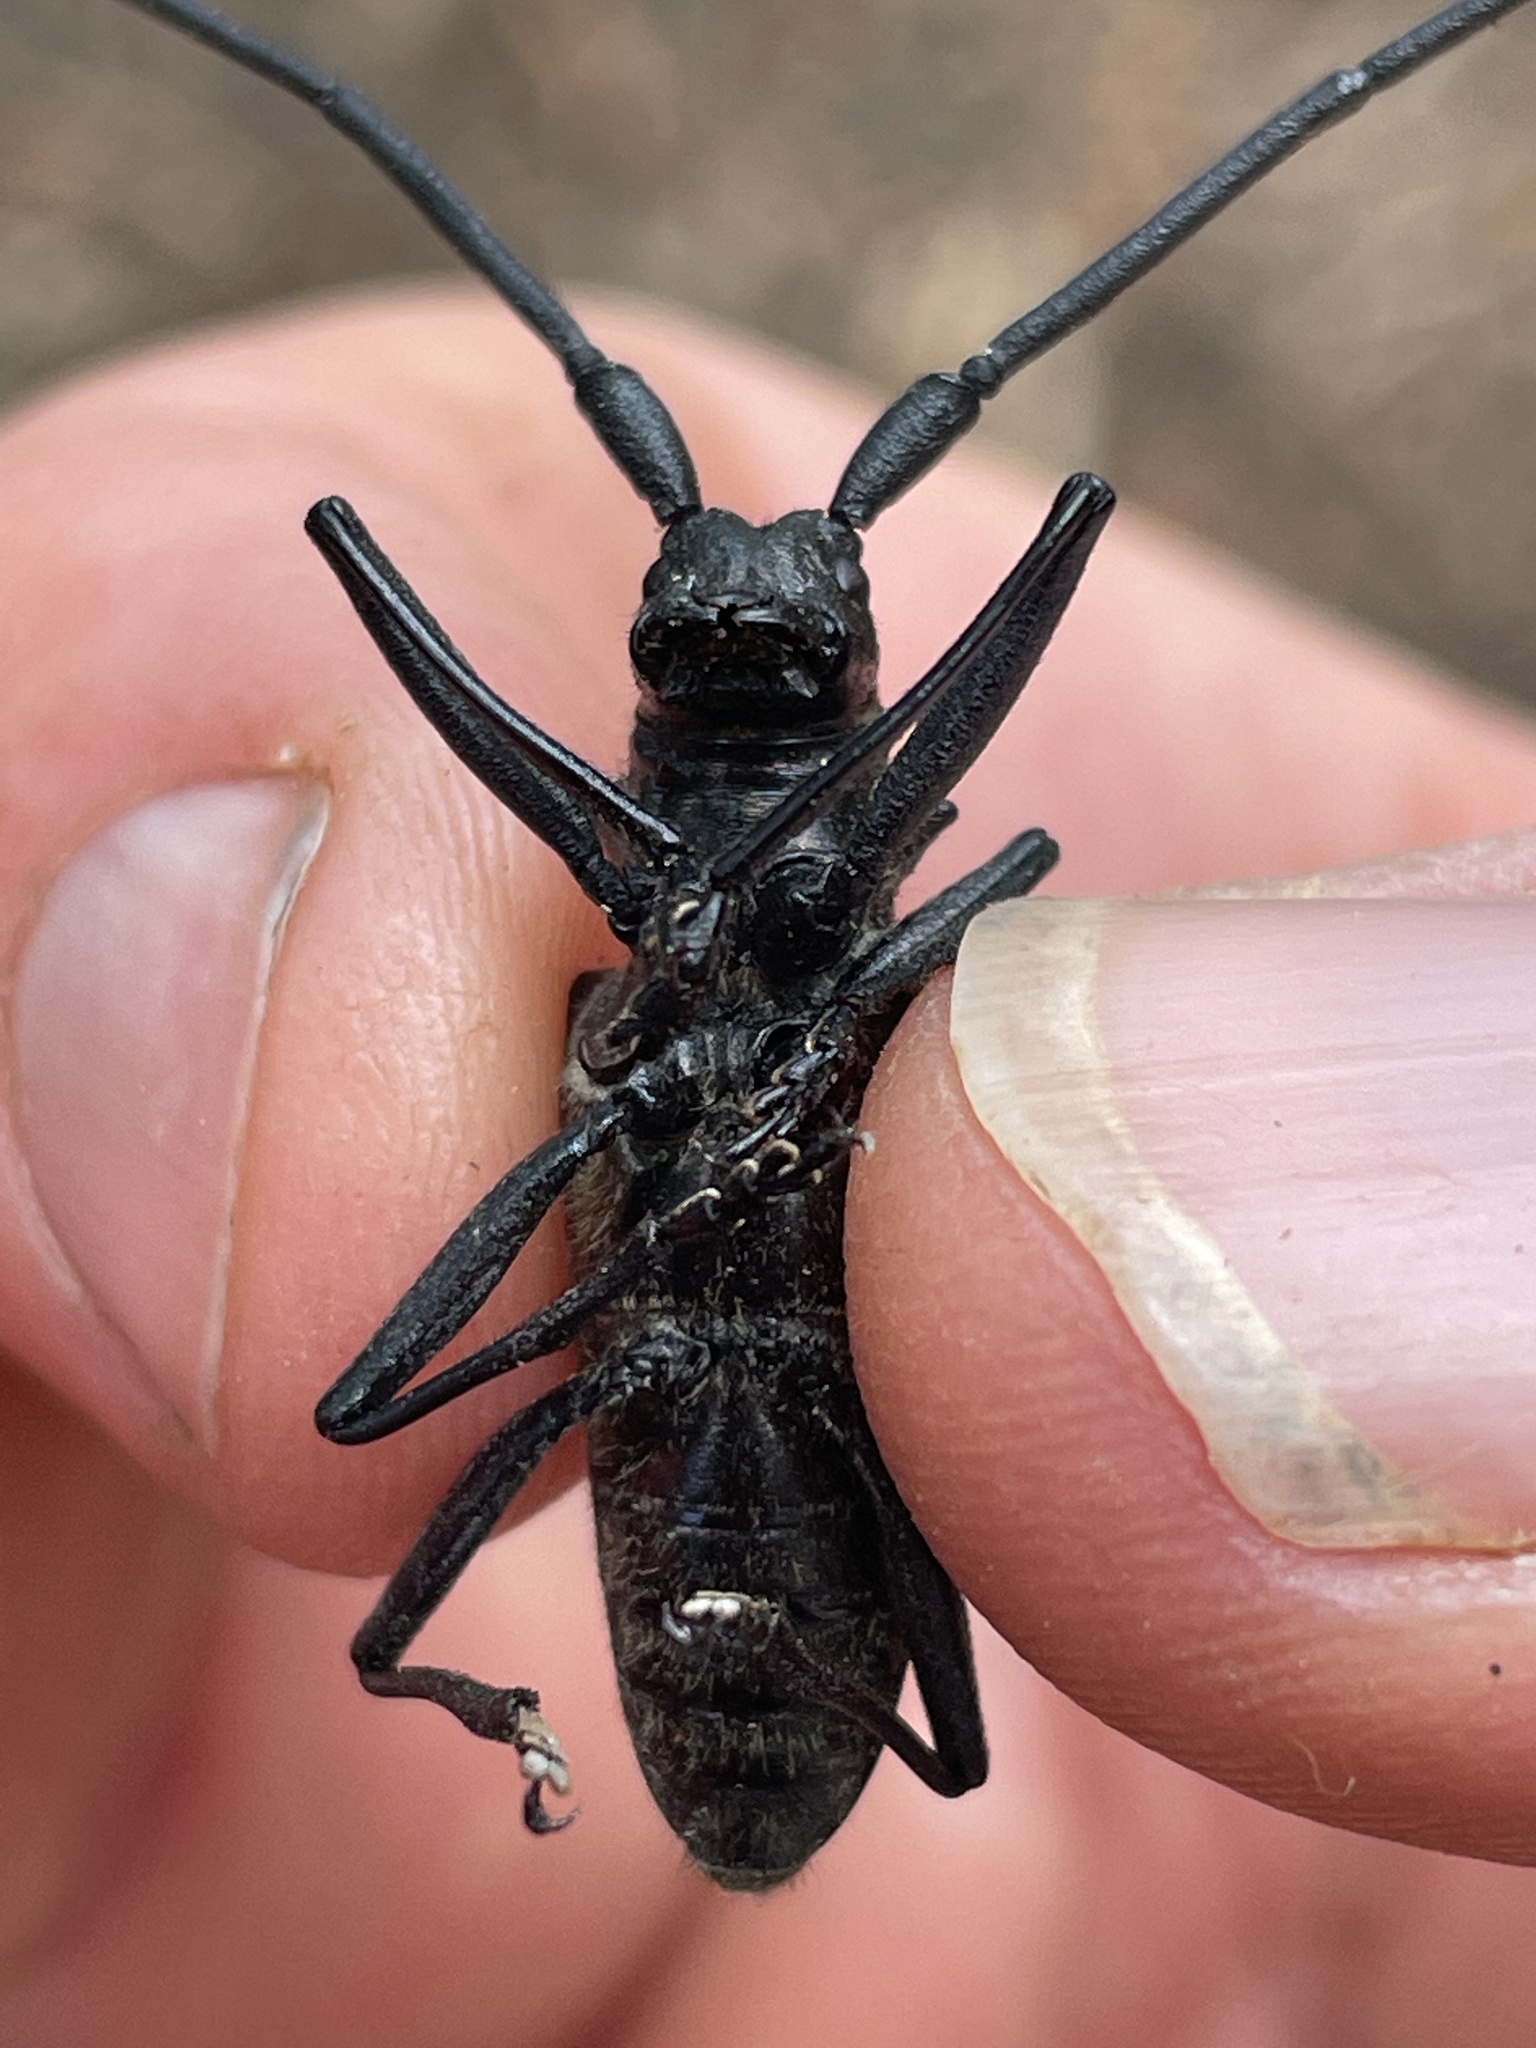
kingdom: Animalia
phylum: Arthropoda
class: Insecta
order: Coleoptera
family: Cerambycidae
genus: Monochamus
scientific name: Monochamus scutellatus
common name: White-spotted sawyer beetle
